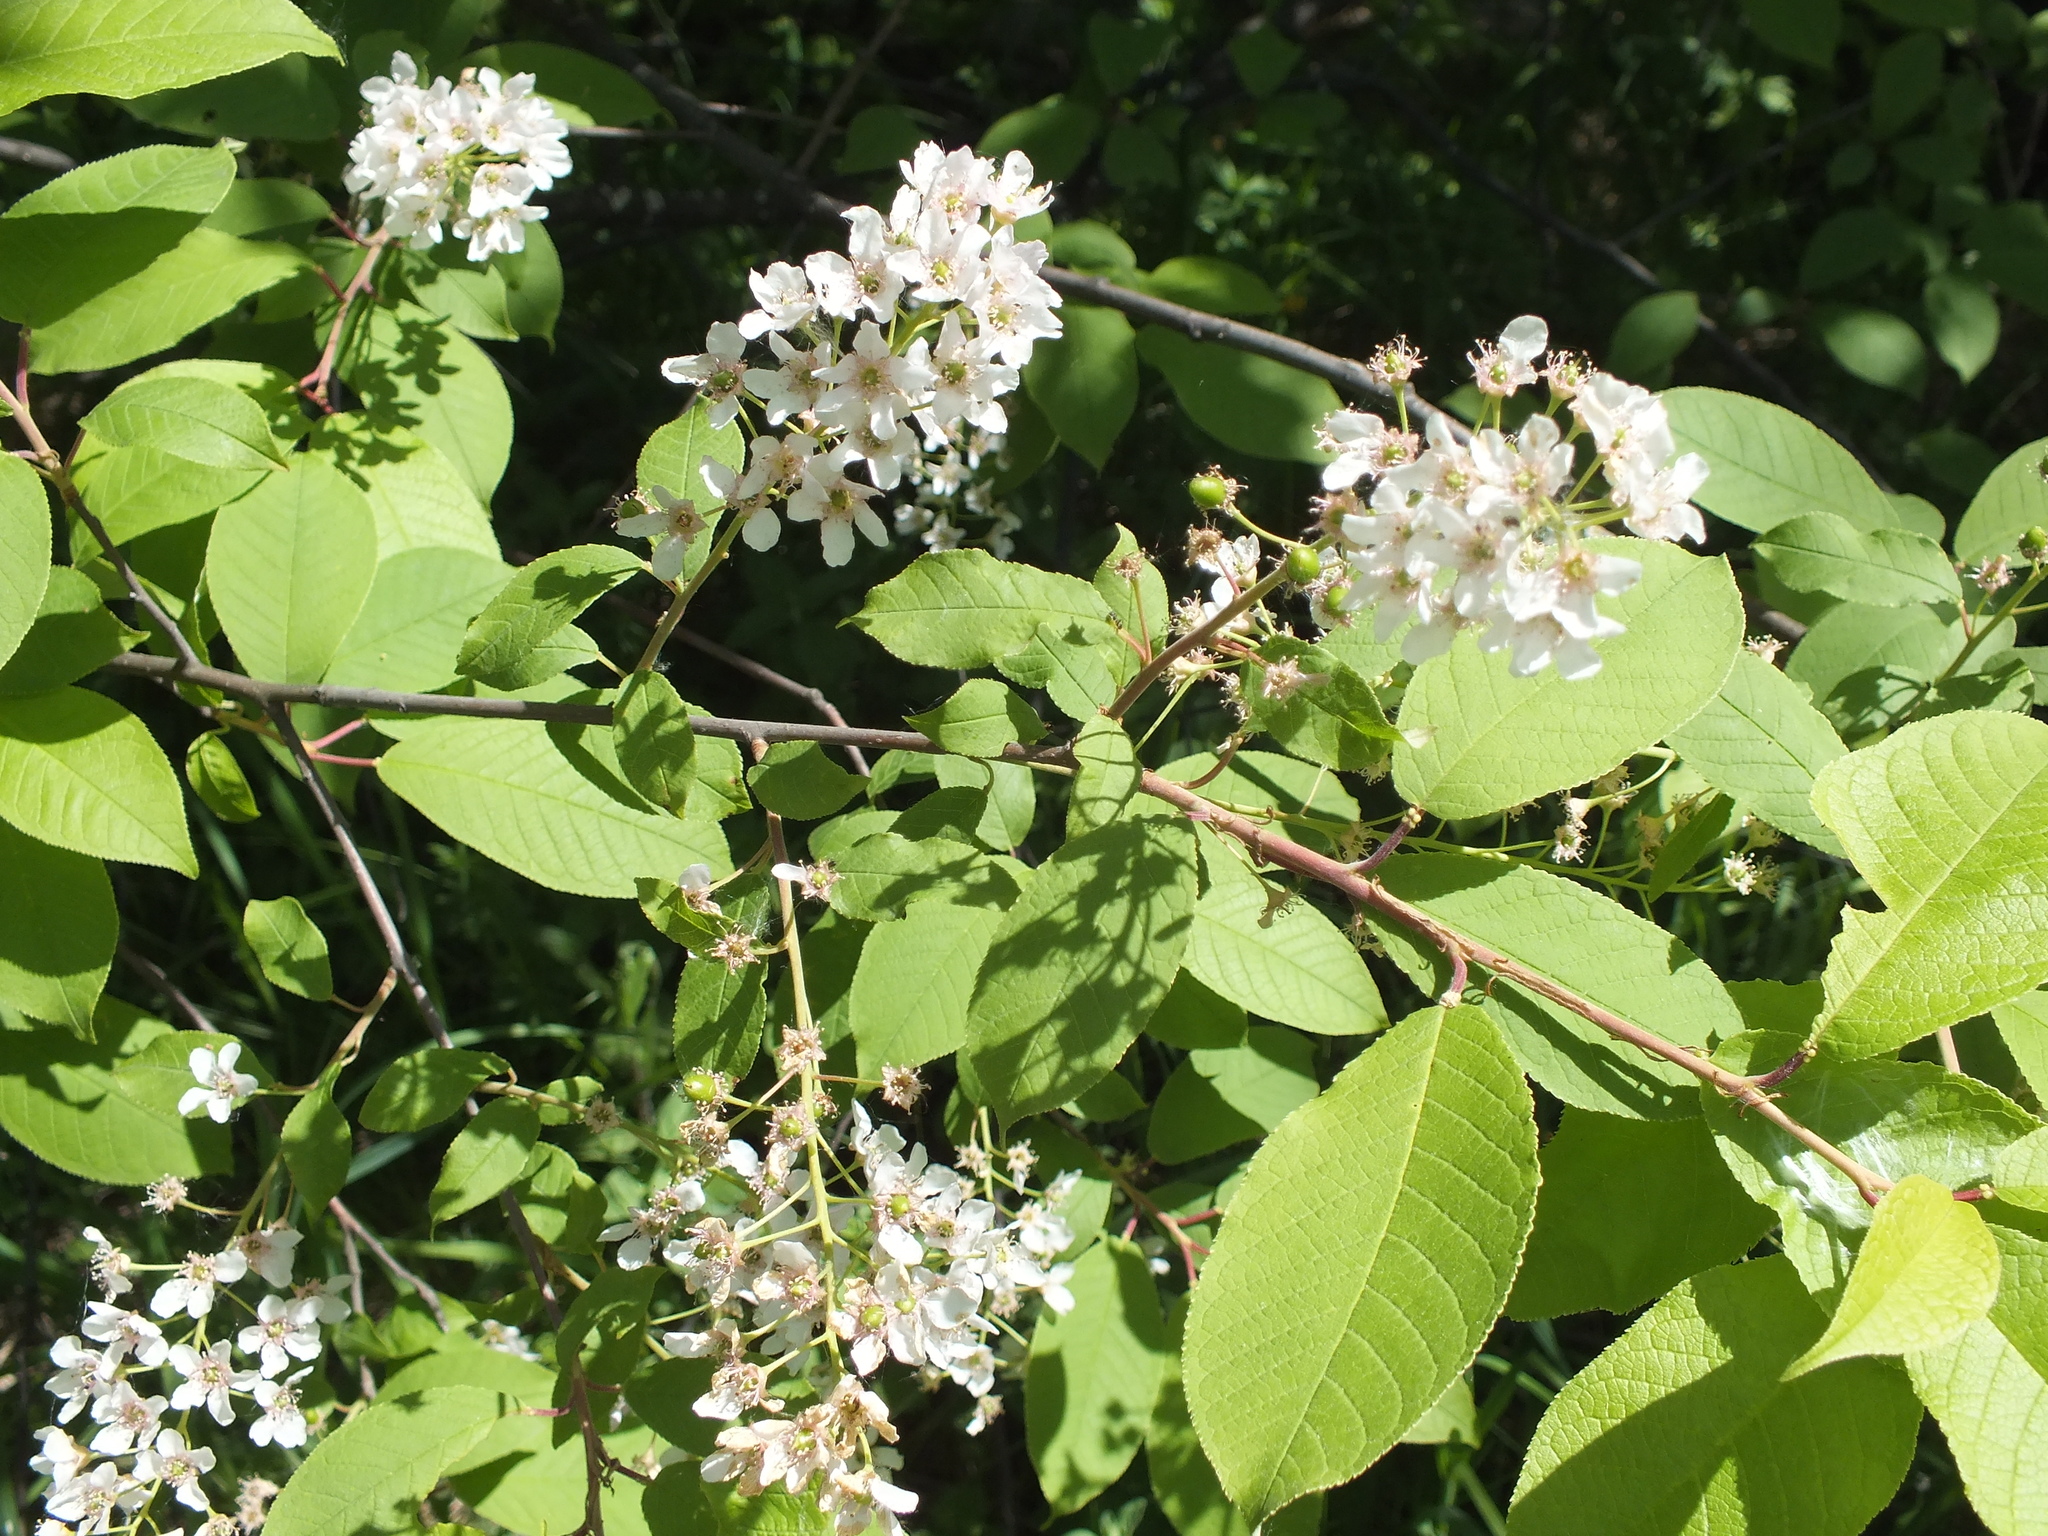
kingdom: Plantae
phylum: Tracheophyta
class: Magnoliopsida
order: Rosales
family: Rosaceae
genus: Prunus
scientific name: Prunus padus
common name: Bird cherry
